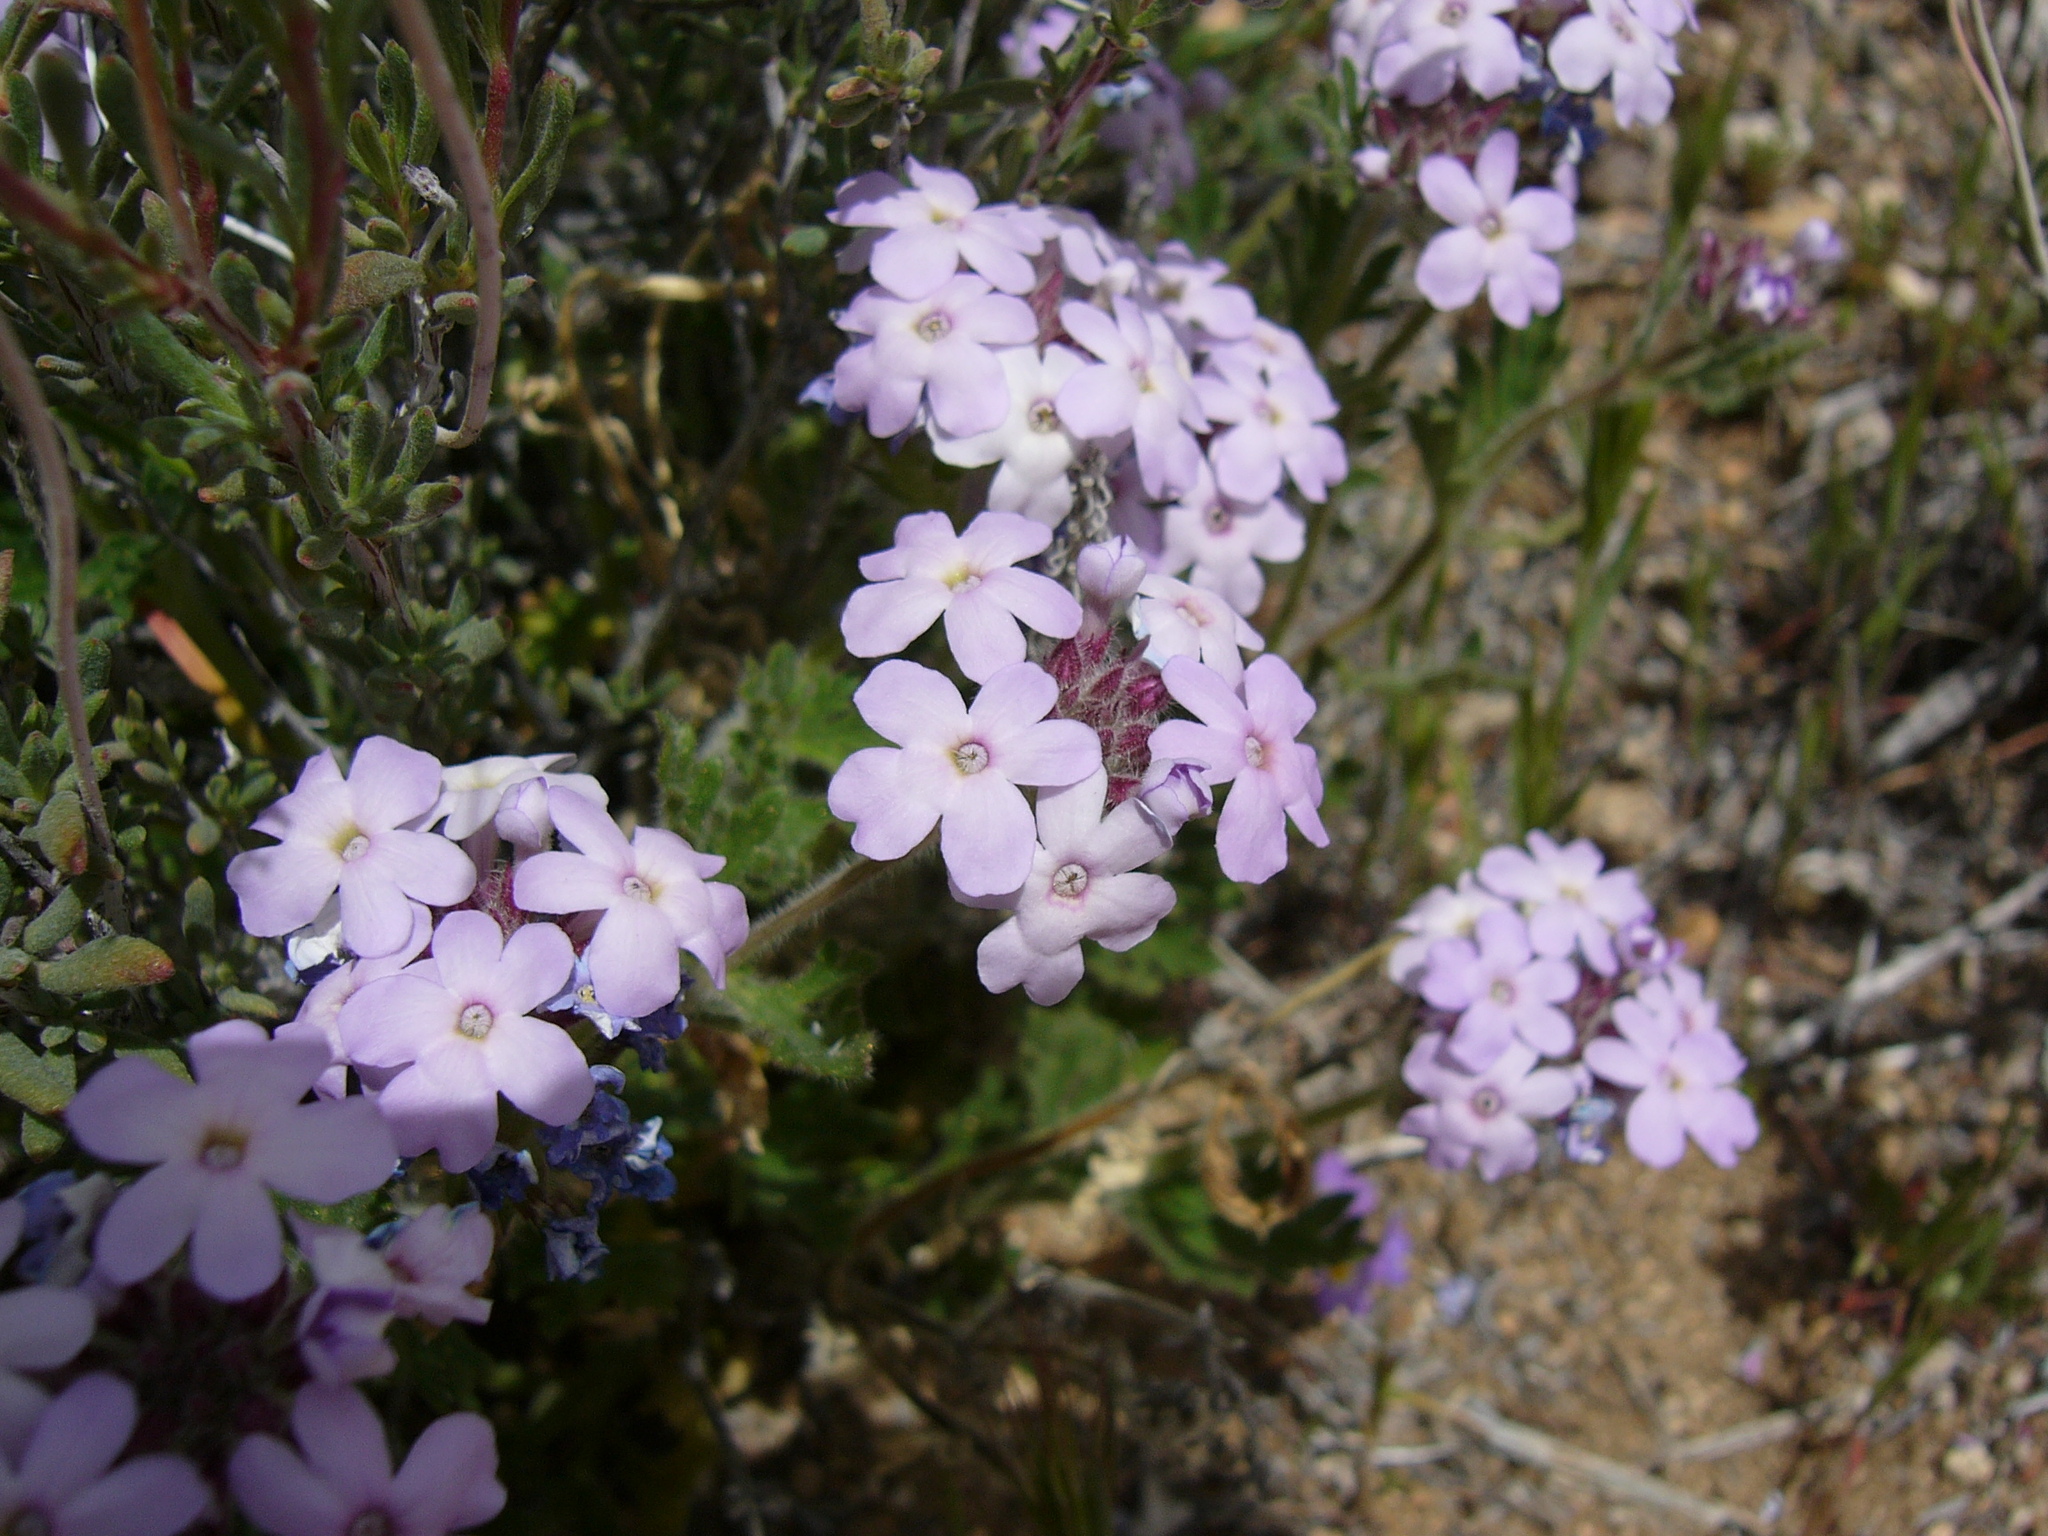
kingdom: Plantae
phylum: Tracheophyta
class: Magnoliopsida
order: Lamiales
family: Verbenaceae
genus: Verbena
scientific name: Verbena gooddingii
